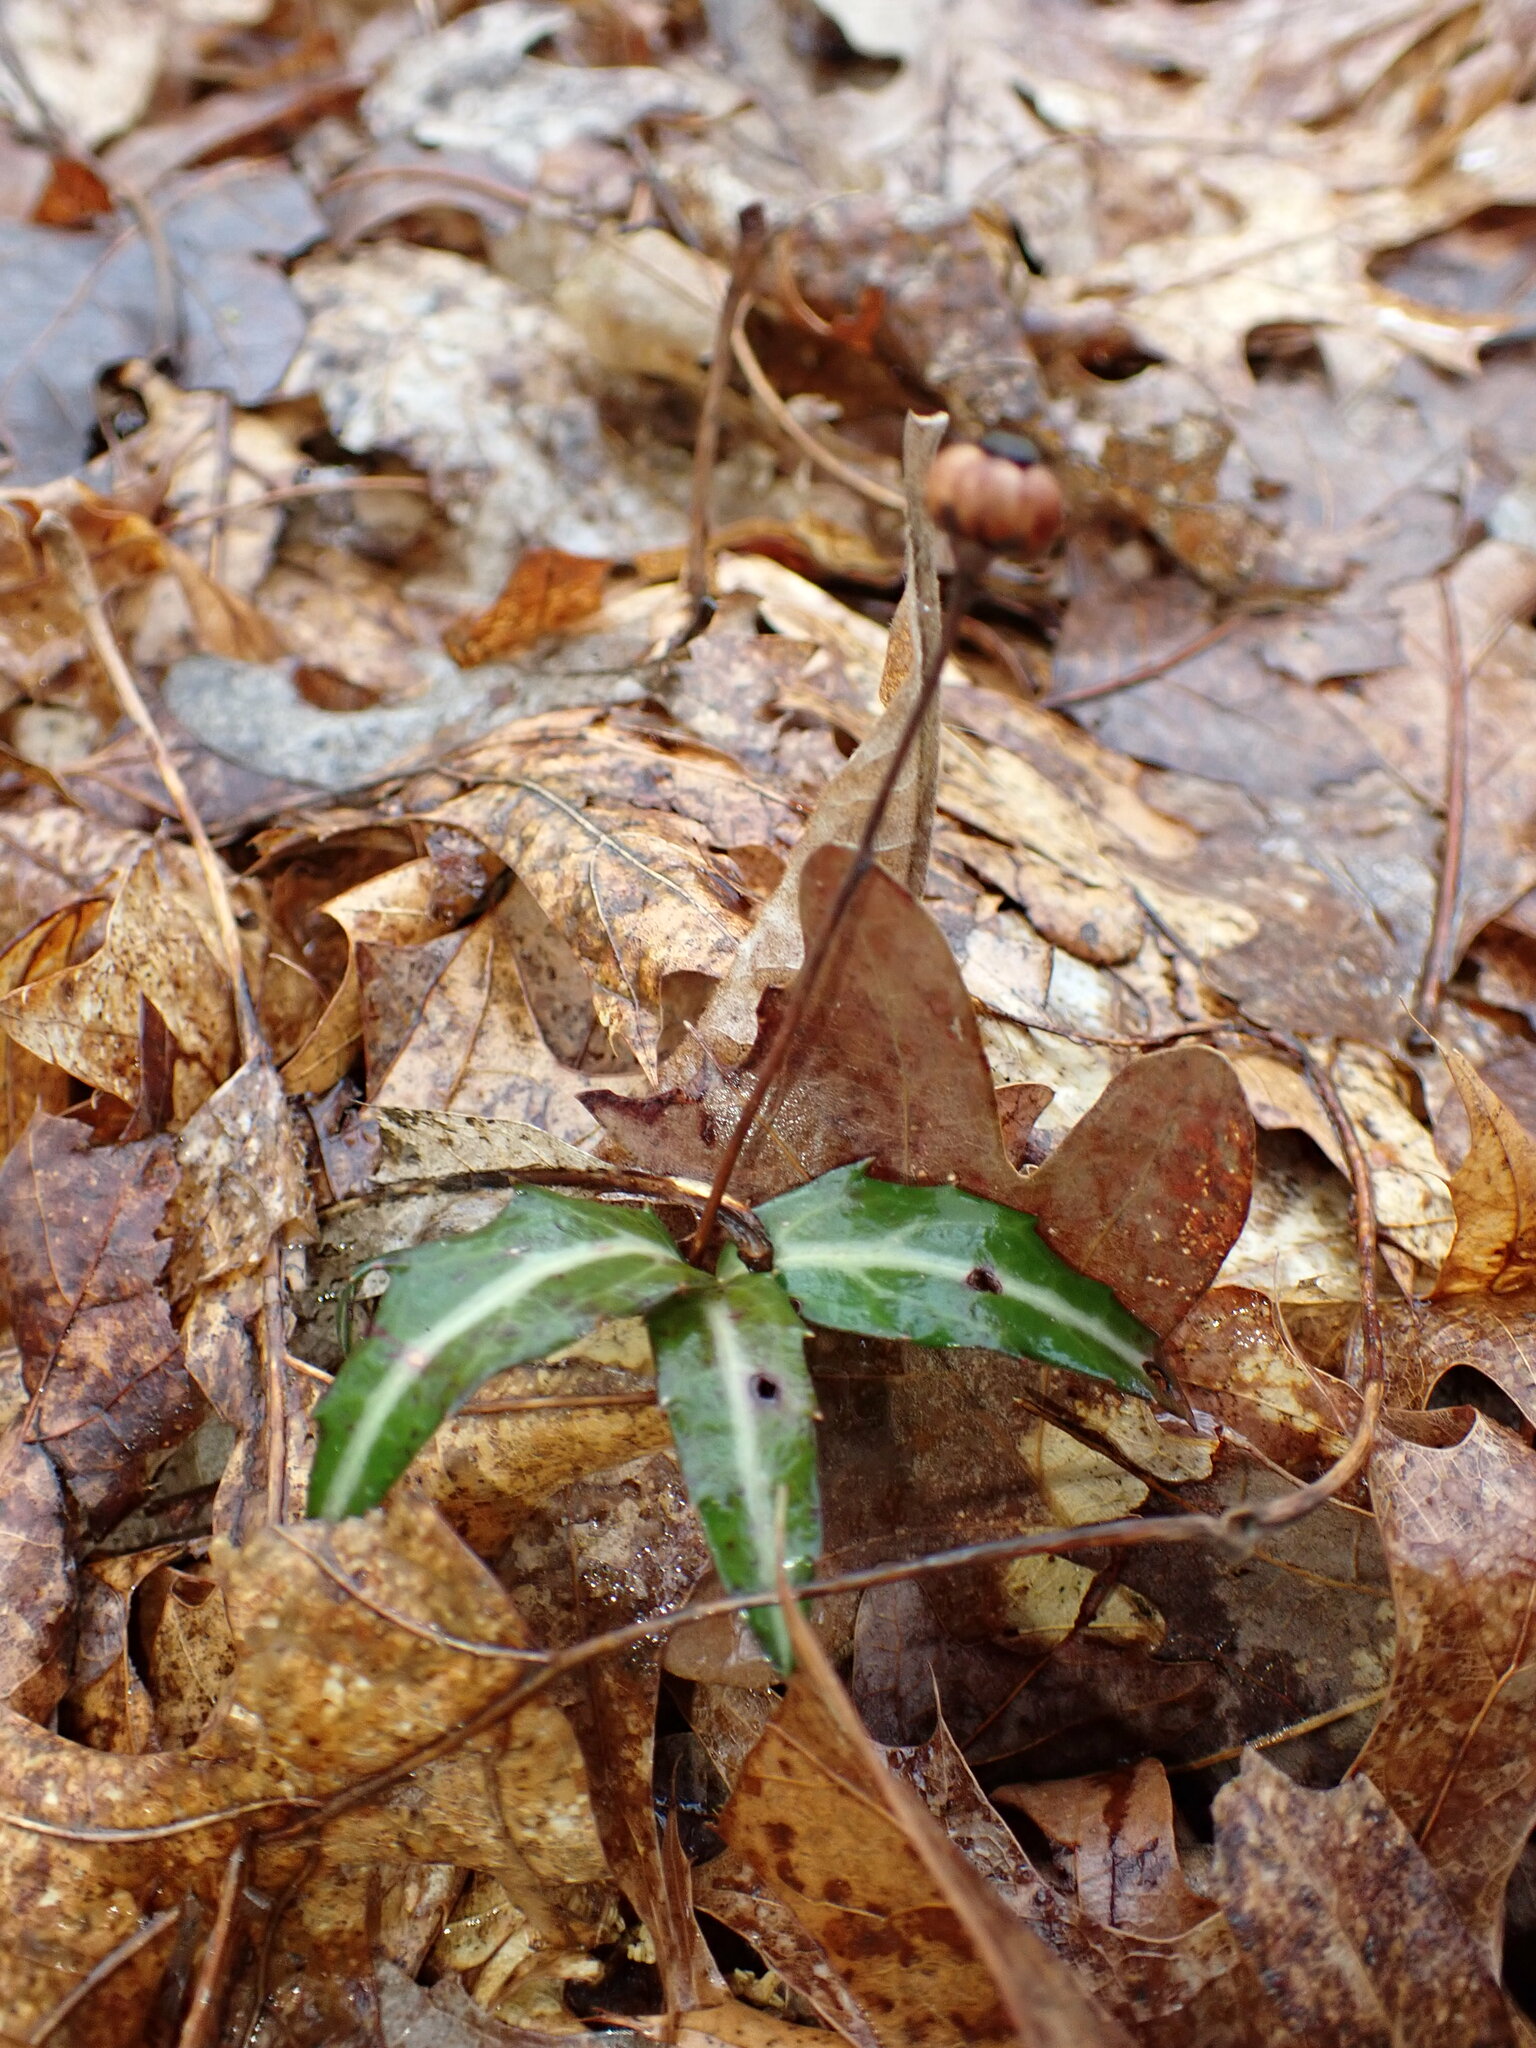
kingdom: Plantae
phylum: Tracheophyta
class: Magnoliopsida
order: Ericales
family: Ericaceae
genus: Chimaphila
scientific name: Chimaphila maculata
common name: Spotted pipsissewa
